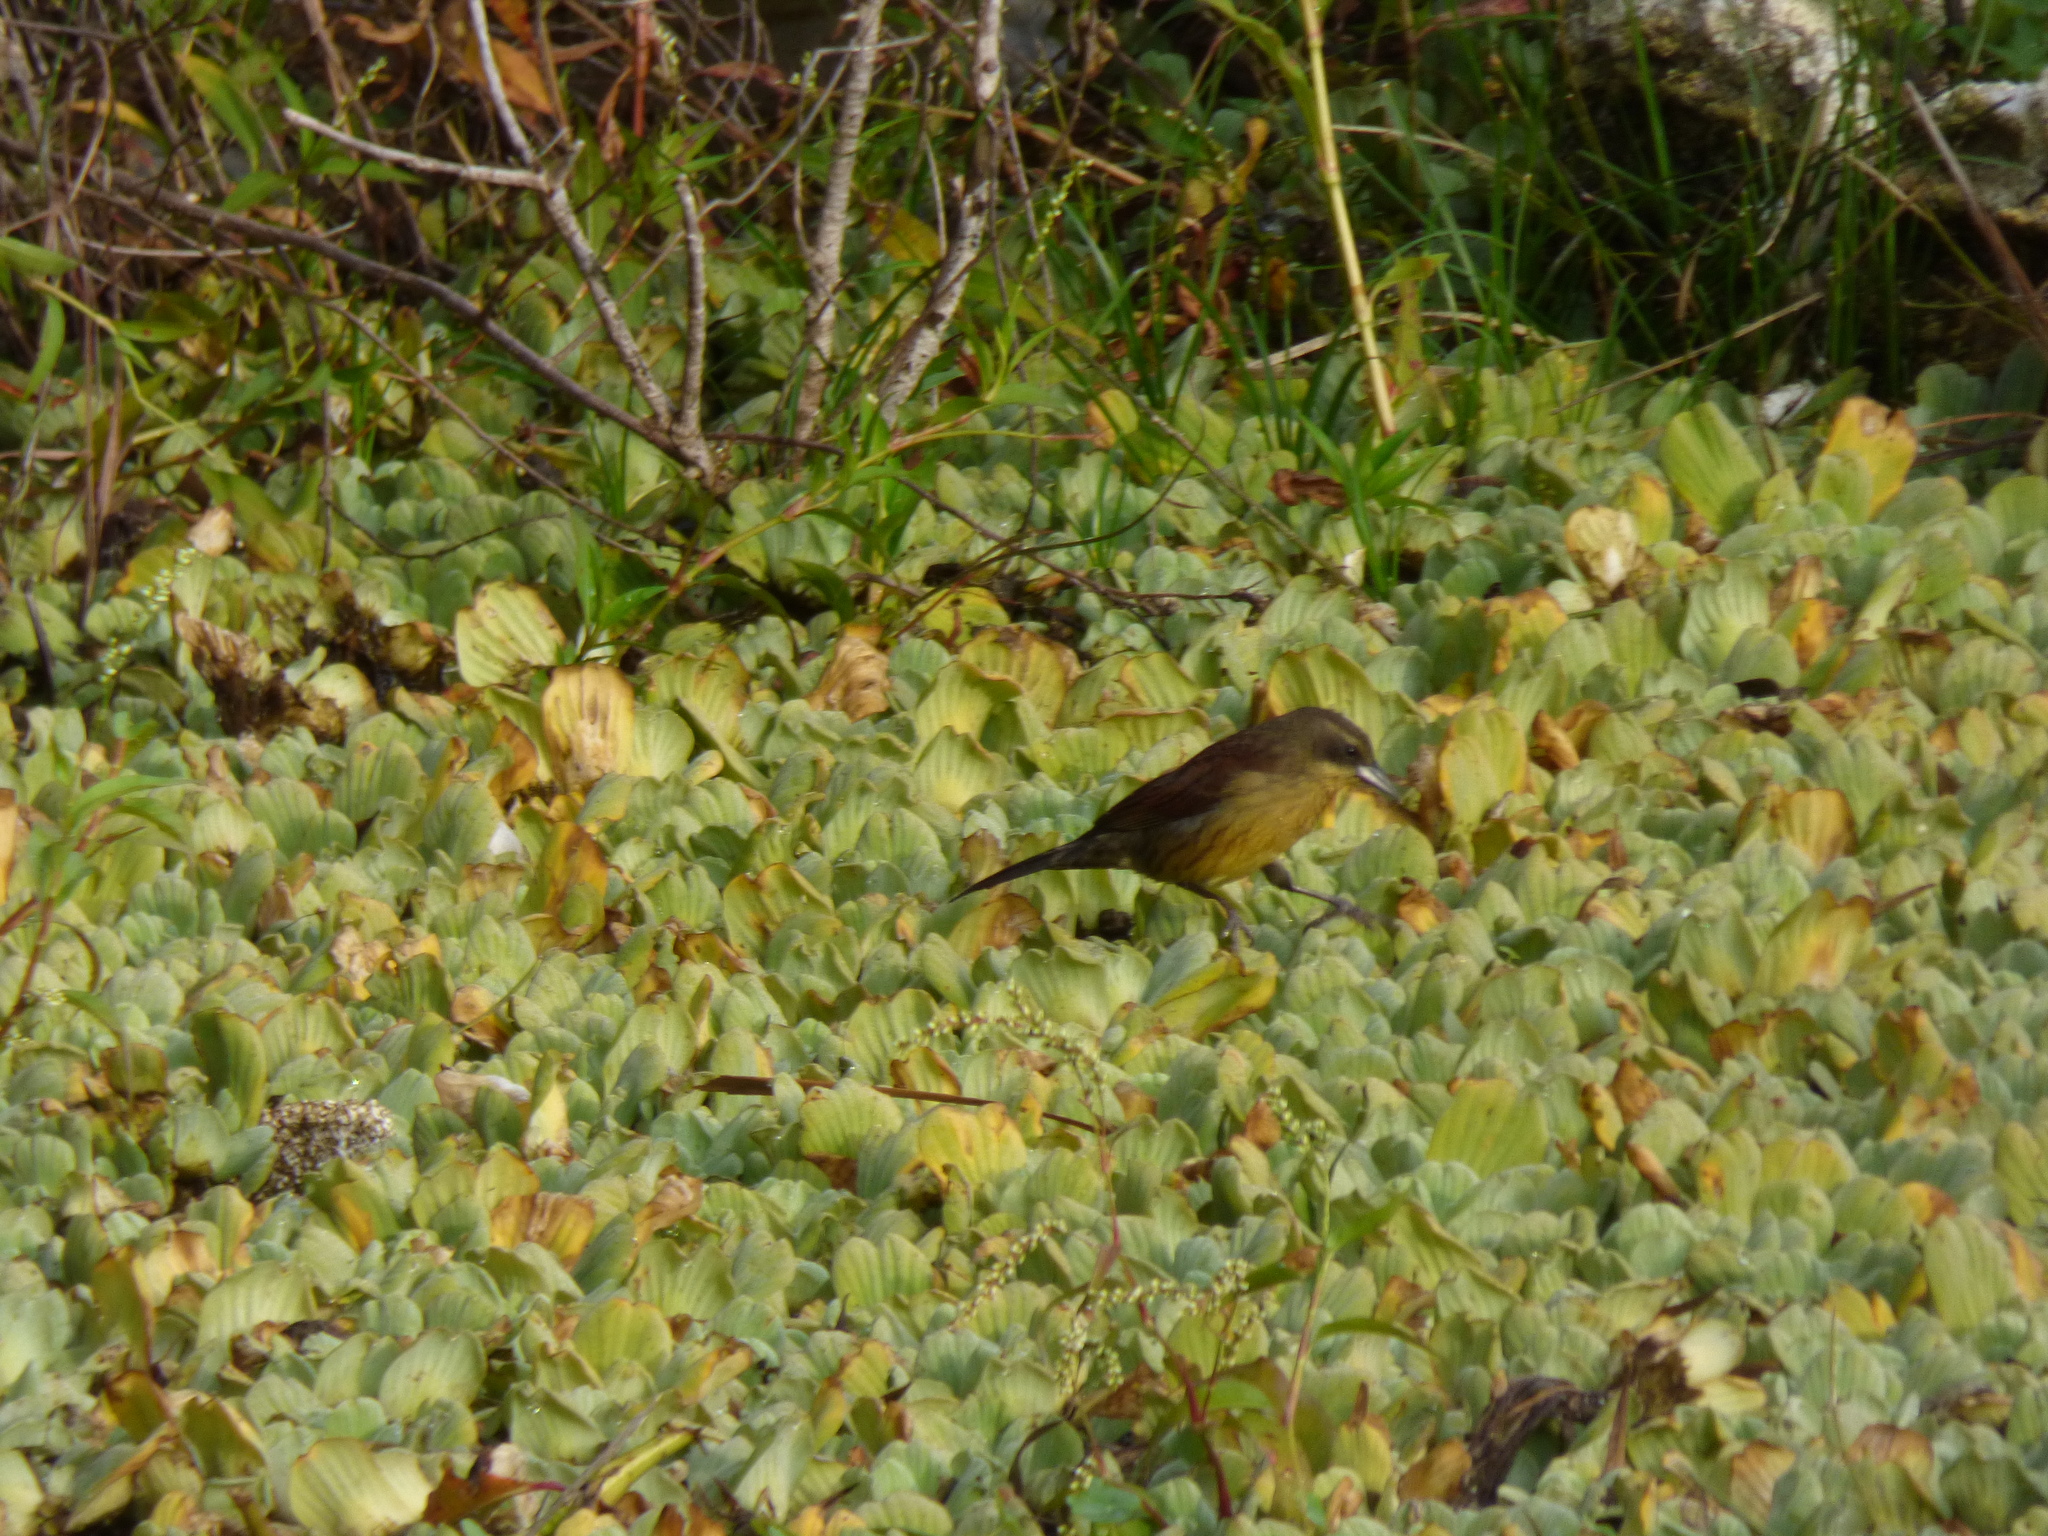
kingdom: Animalia
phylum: Chordata
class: Aves
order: Passeriformes
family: Icteridae
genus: Agelasticus
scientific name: Agelasticus cyanopus
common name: Unicolored blackbird
